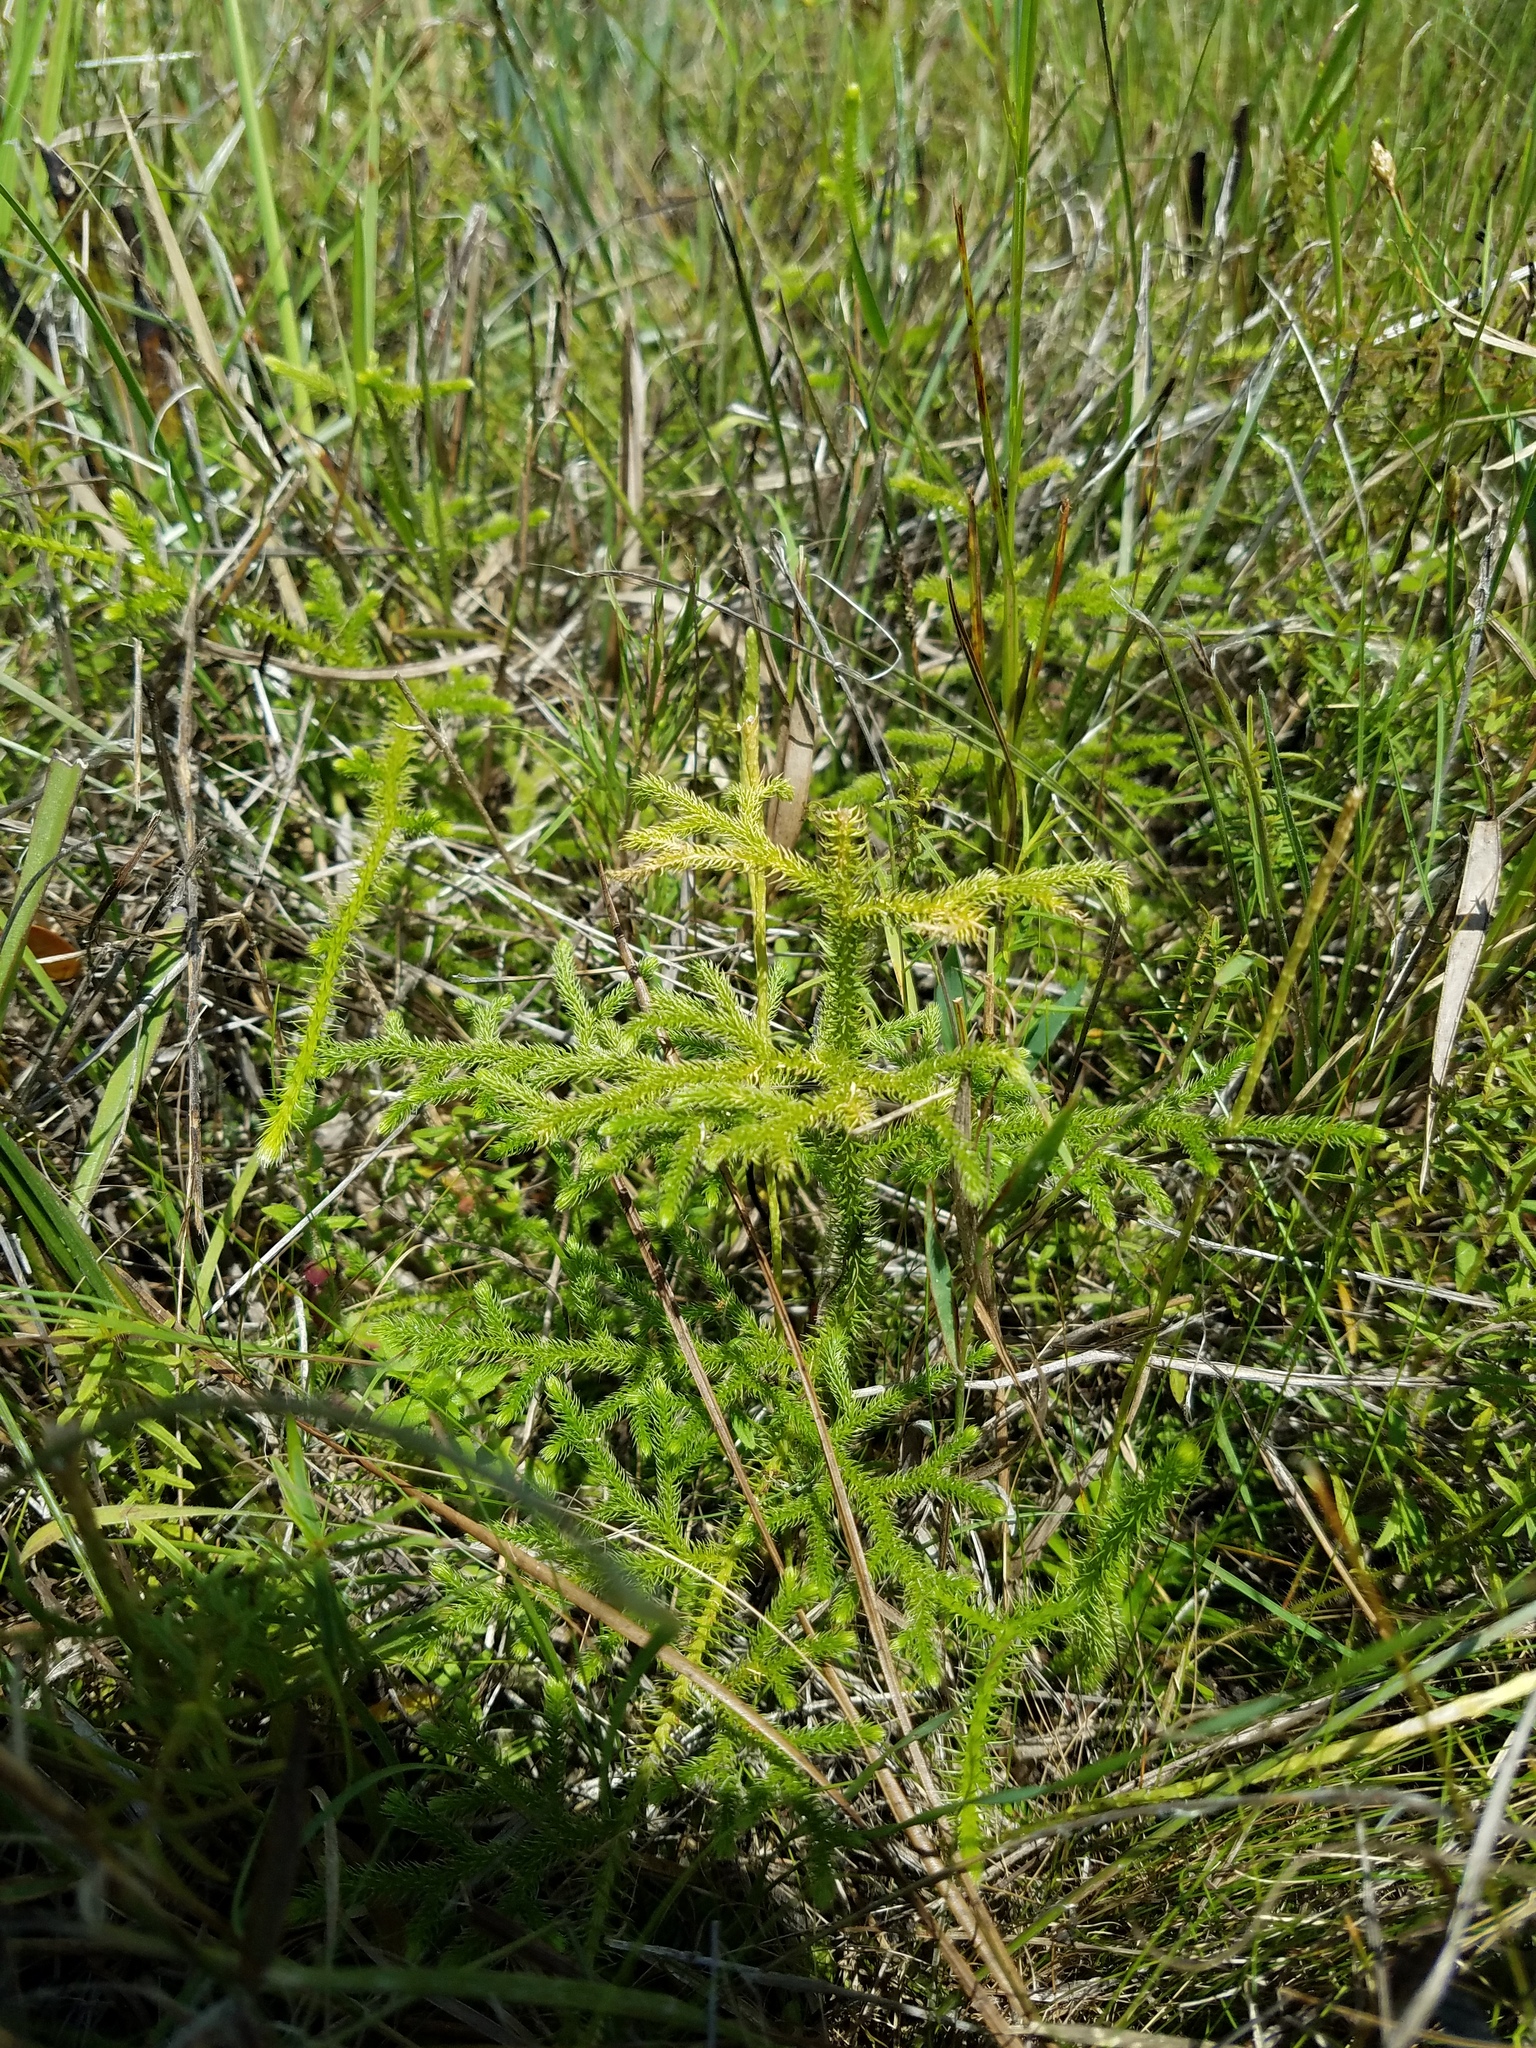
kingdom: Plantae
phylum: Tracheophyta
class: Lycopodiopsida
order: Lycopodiales
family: Lycopodiaceae
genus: Palhinhaea
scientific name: Palhinhaea cernua
